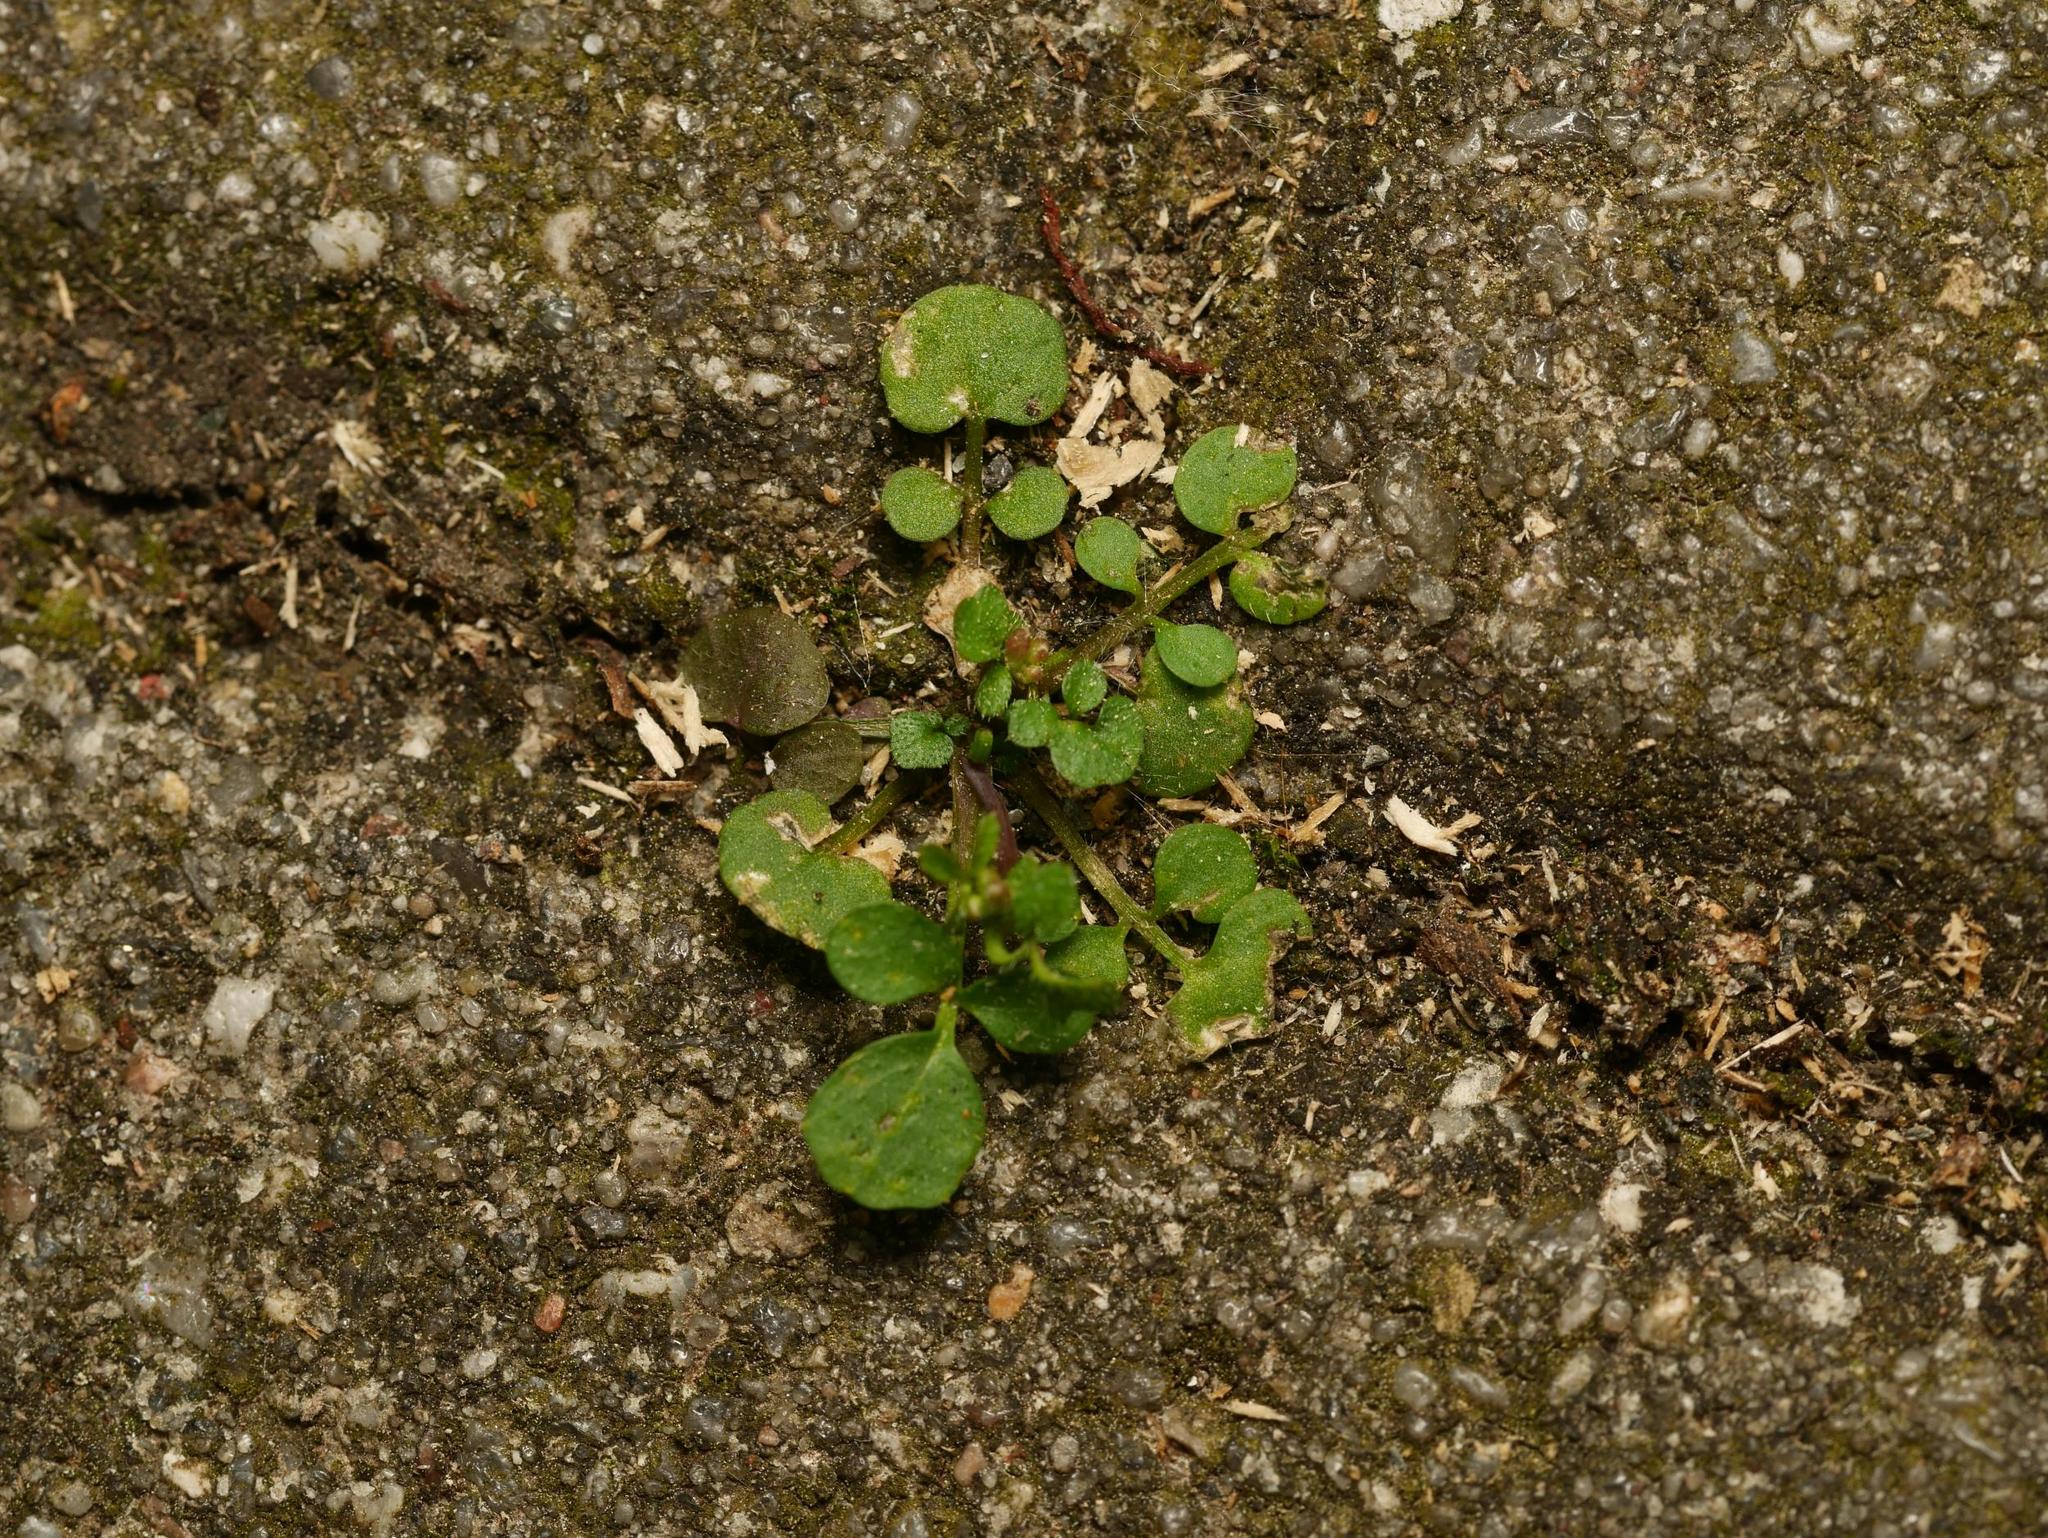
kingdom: Plantae
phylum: Tracheophyta
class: Magnoliopsida
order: Brassicales
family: Brassicaceae
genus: Cardamine
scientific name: Cardamine hirsuta
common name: Hairy bittercress
